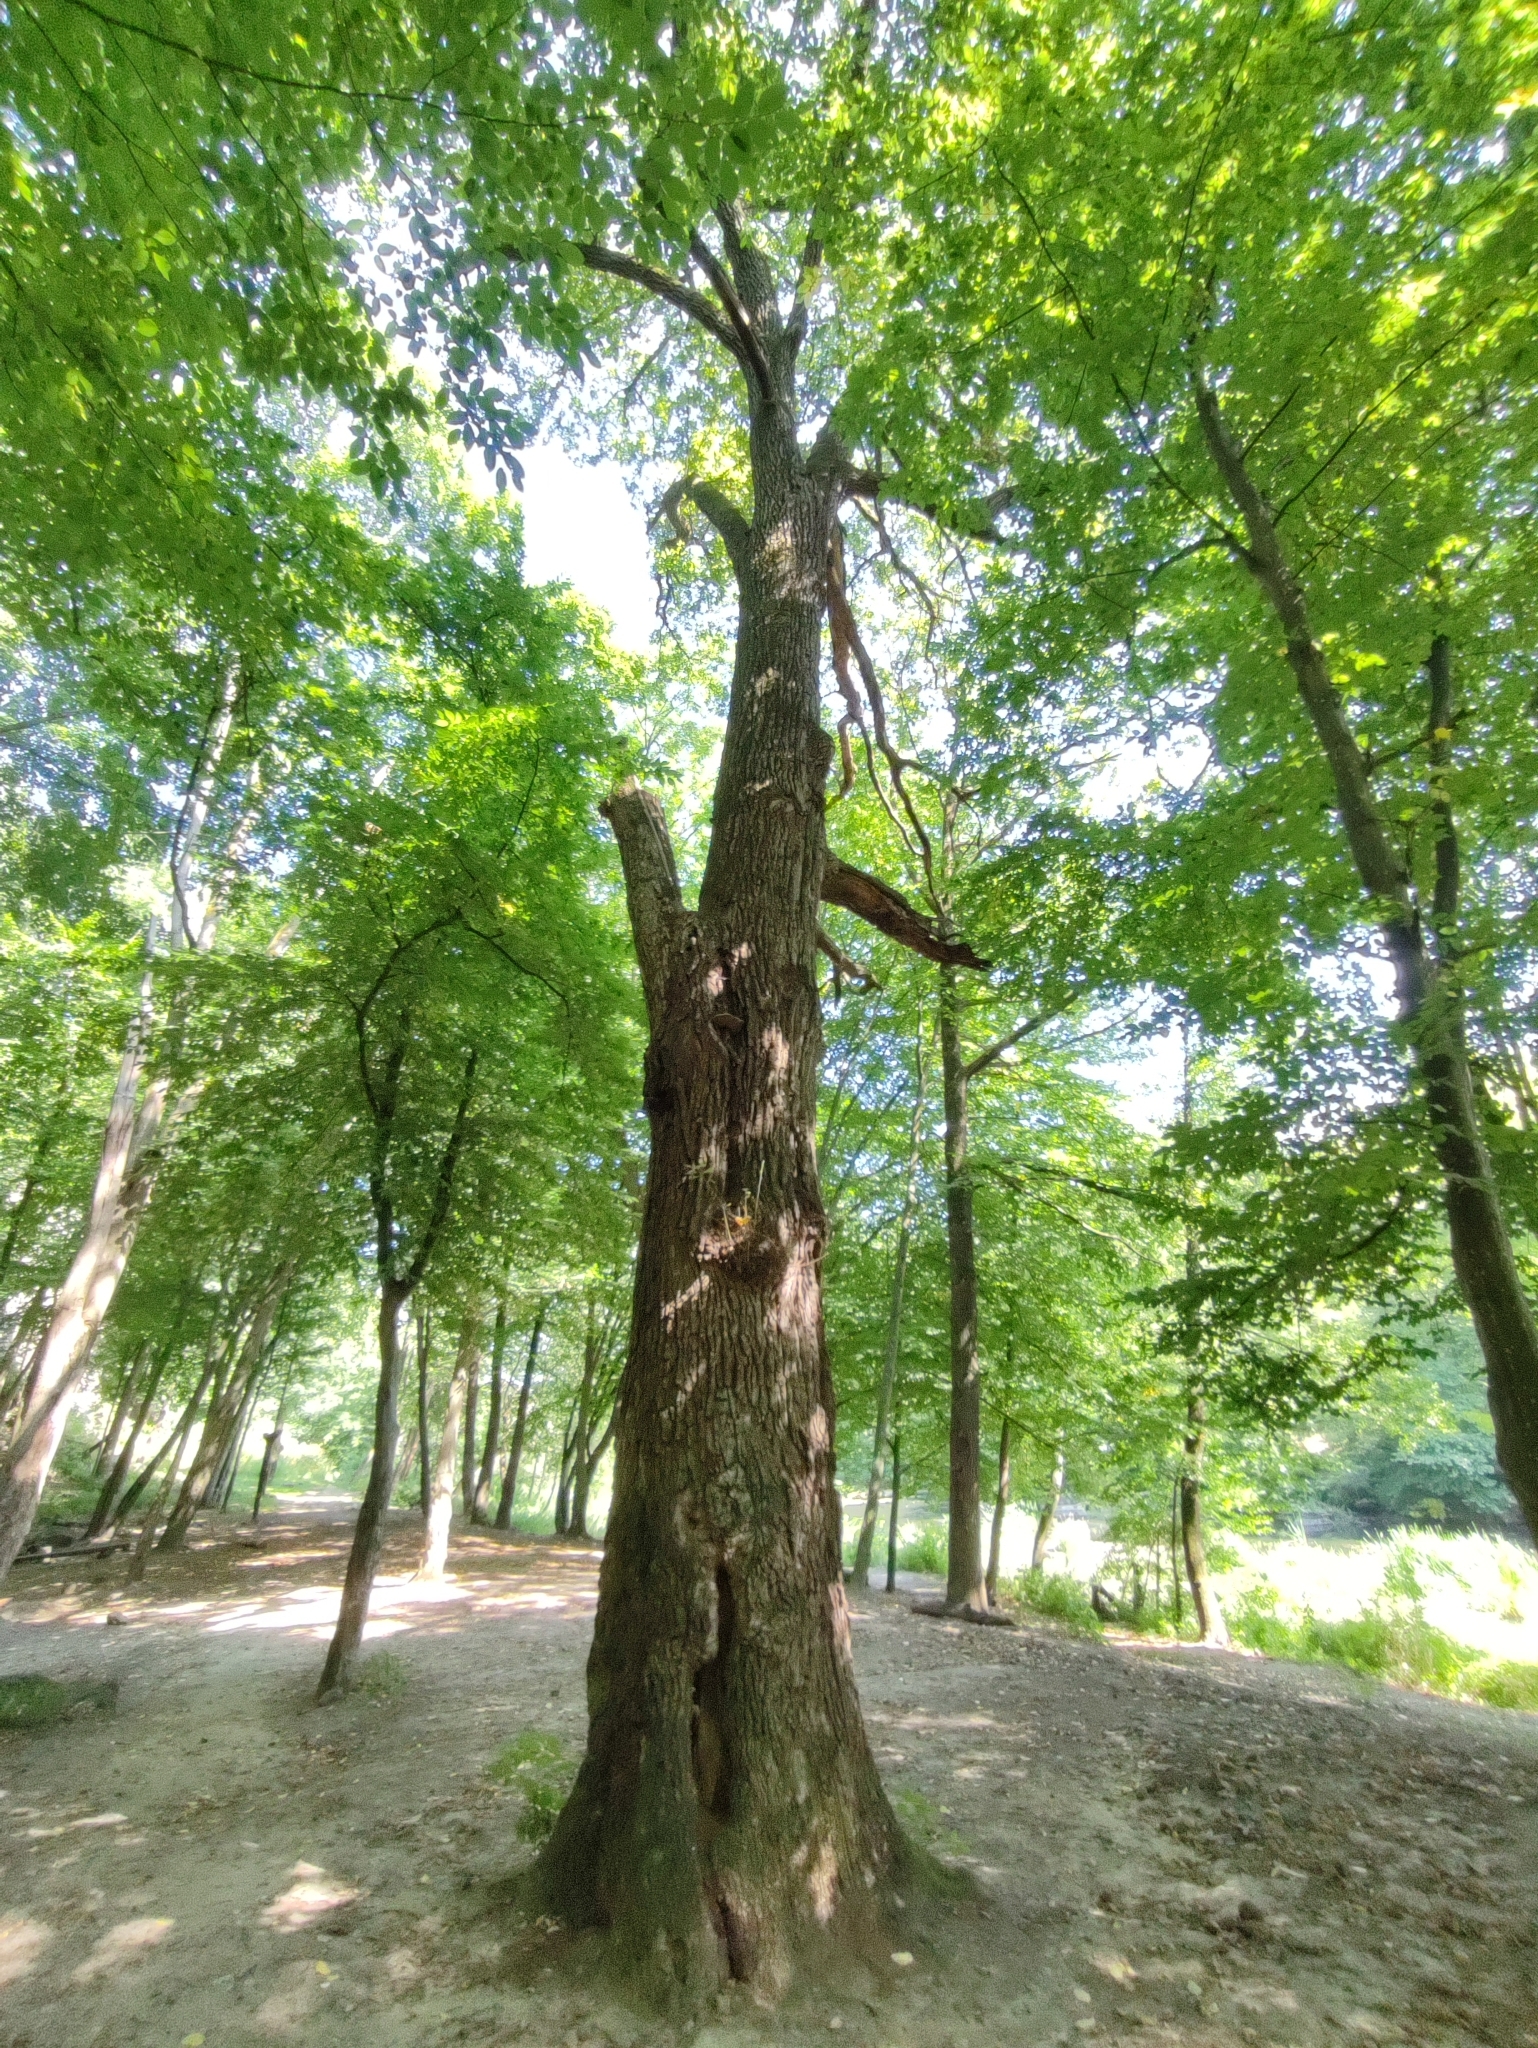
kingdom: Plantae
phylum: Tracheophyta
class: Magnoliopsida
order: Fagales
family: Fagaceae
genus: Quercus
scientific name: Quercus robur
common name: Pedunculate oak
